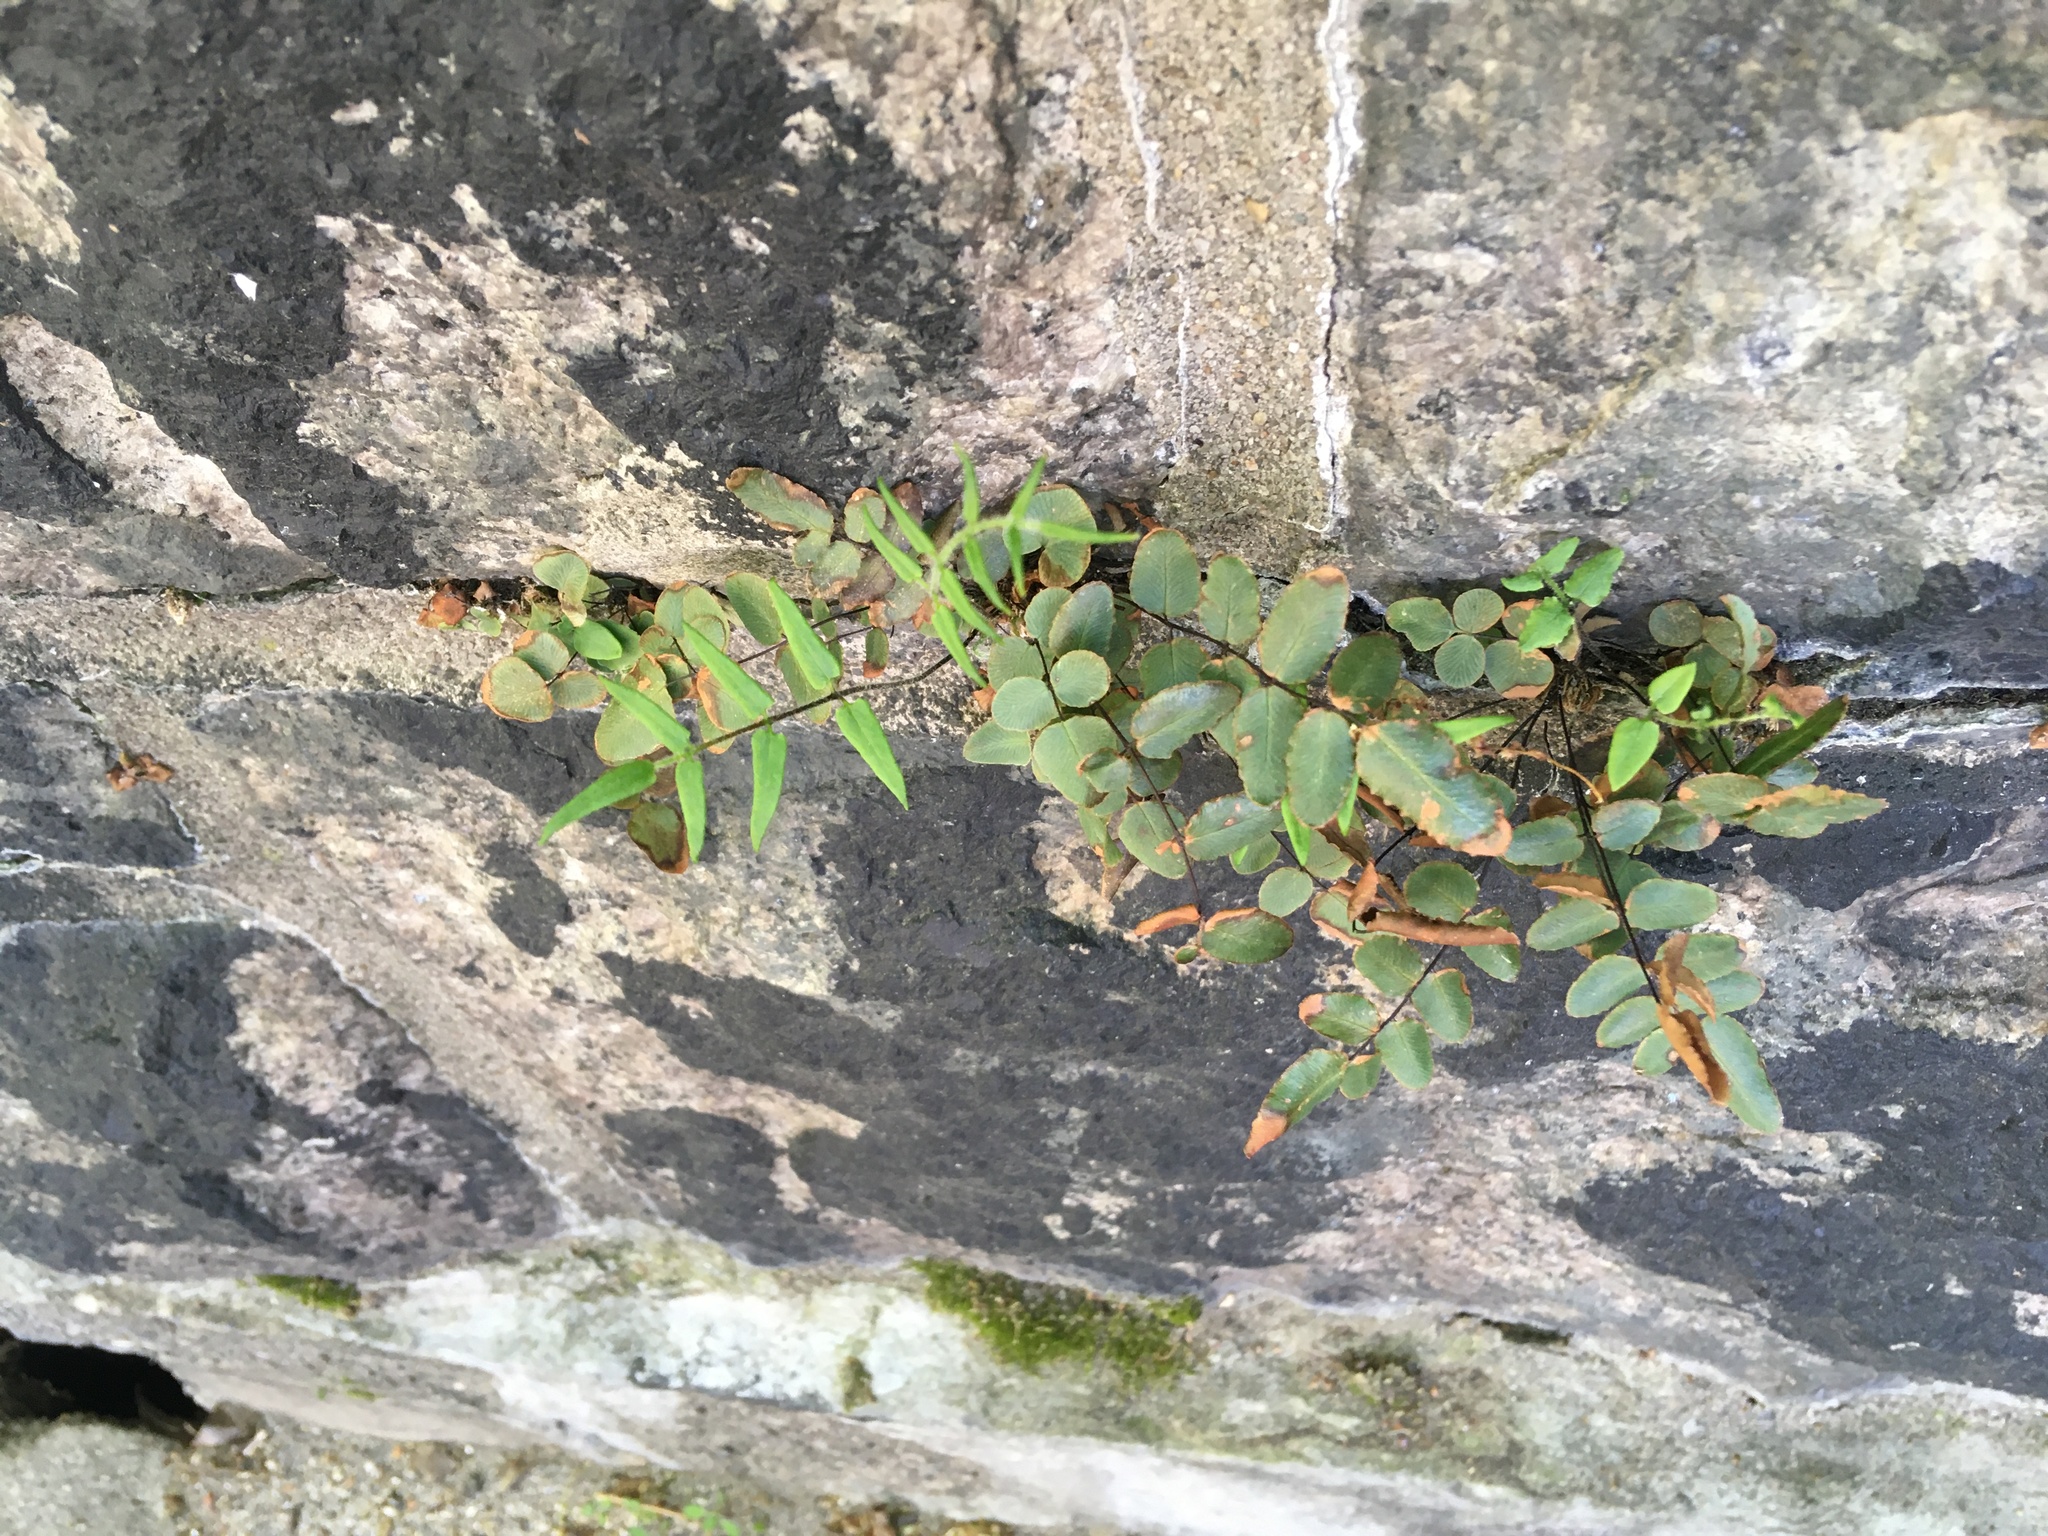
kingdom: Plantae
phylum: Tracheophyta
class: Polypodiopsida
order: Polypodiales
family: Pteridaceae
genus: Pellaea
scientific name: Pellaea atropurpurea
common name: Hairy cliffbrake
